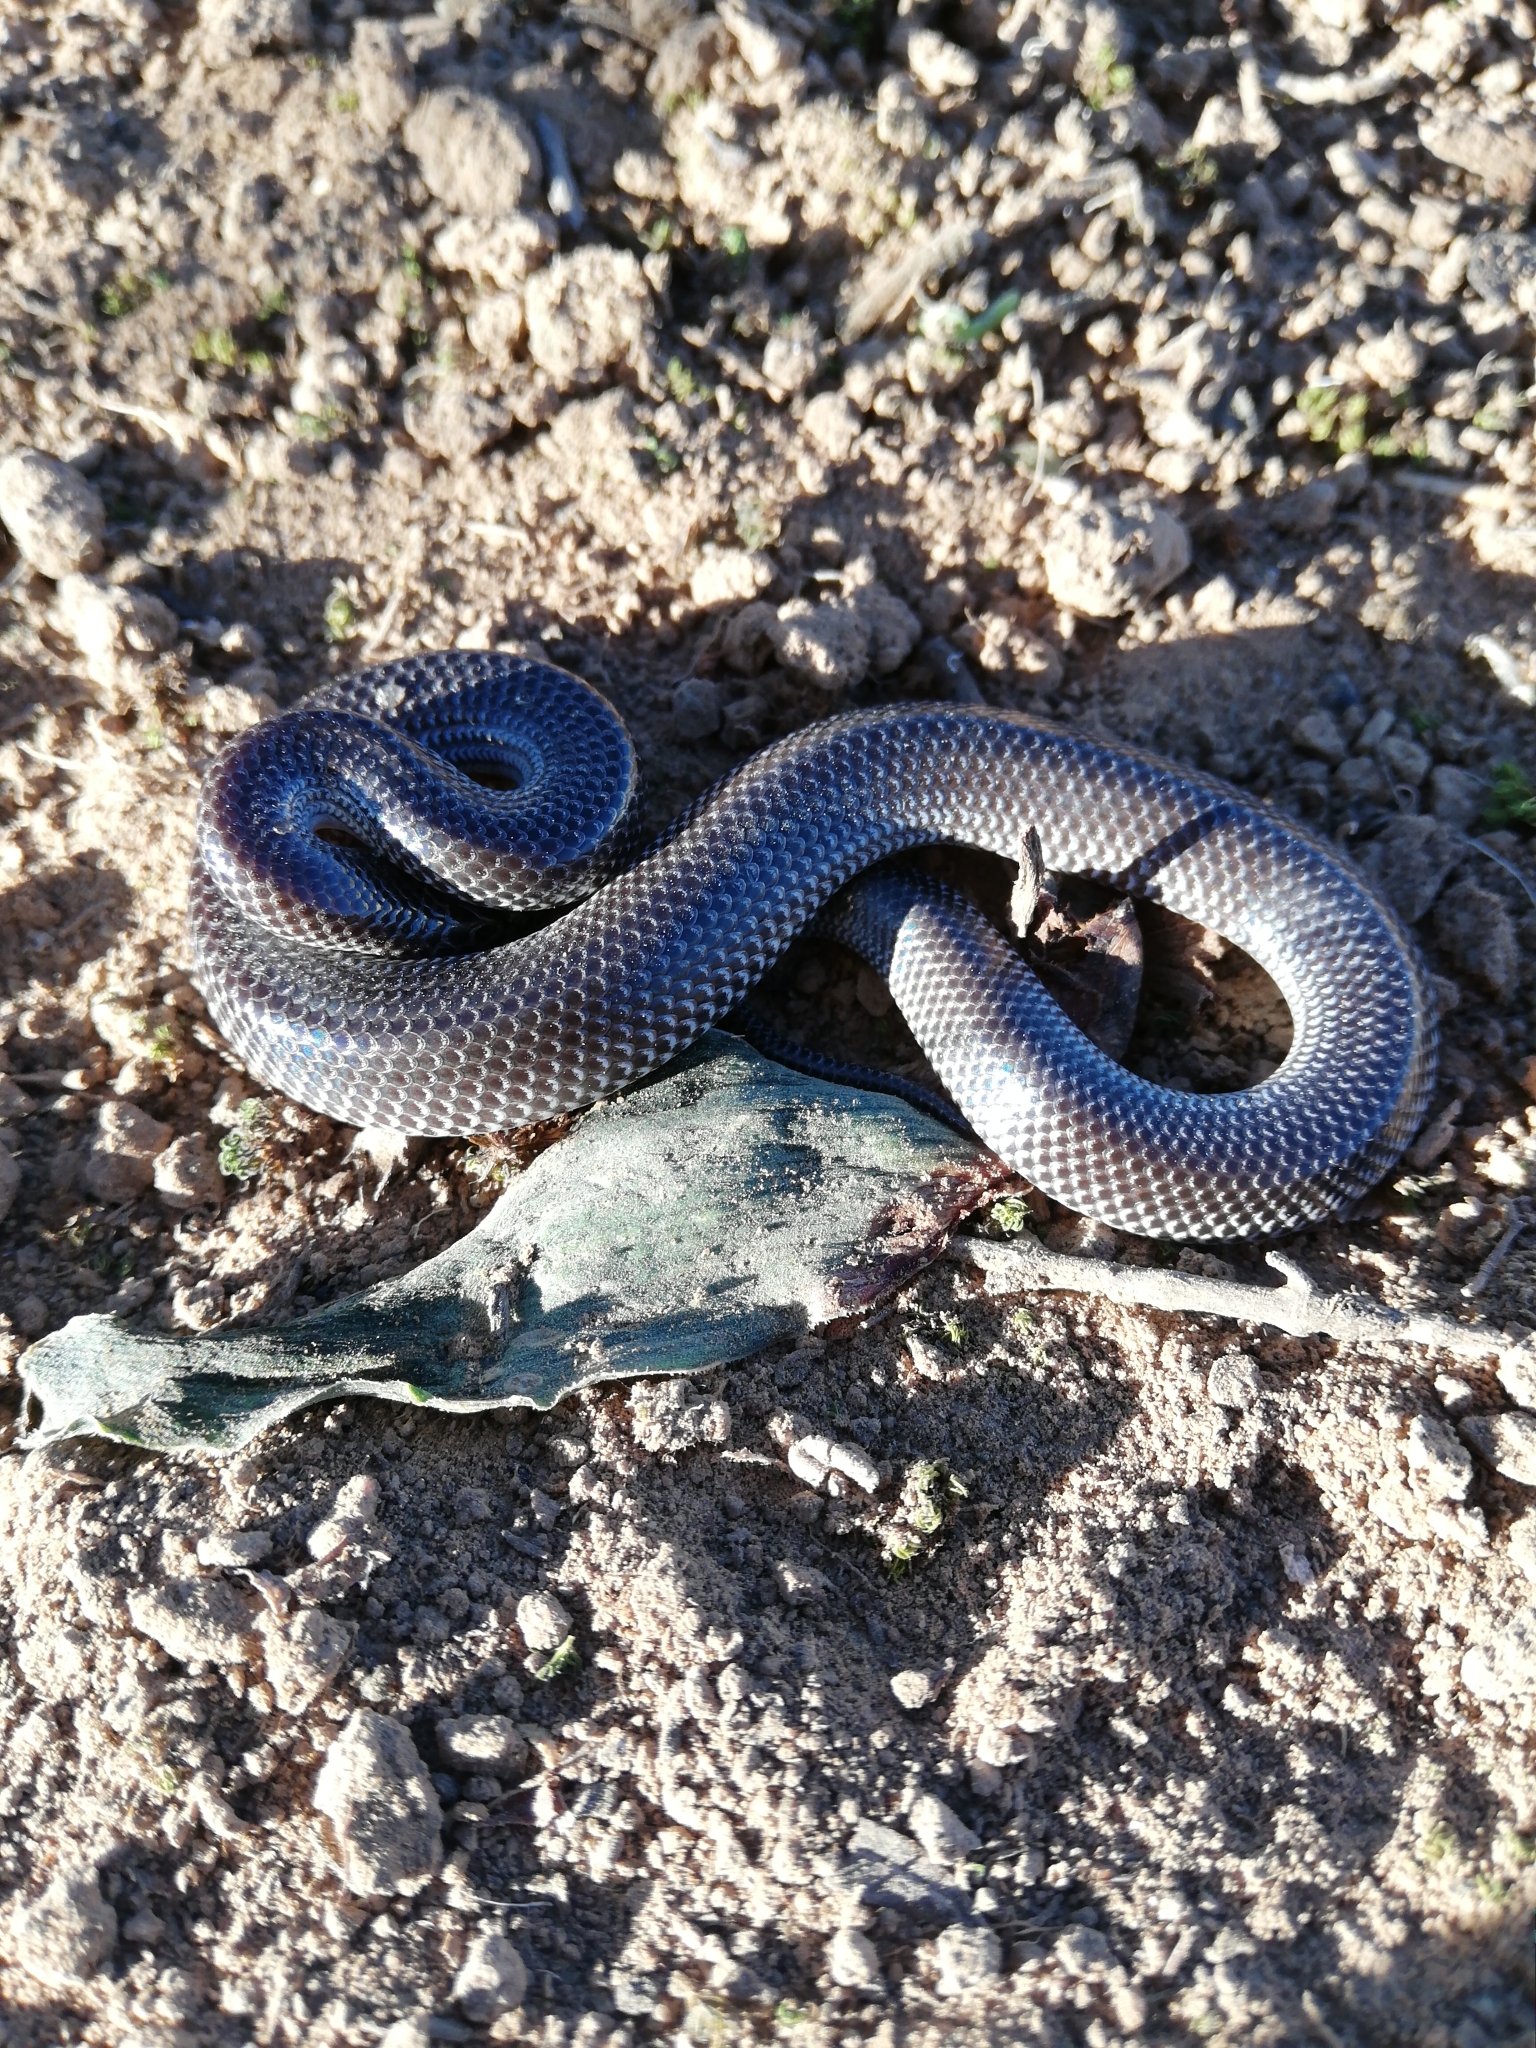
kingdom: Animalia
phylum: Chordata
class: Squamata
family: Lamprophiidae
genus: Lycophidion
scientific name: Lycophidion capense
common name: Cape wolf snake
